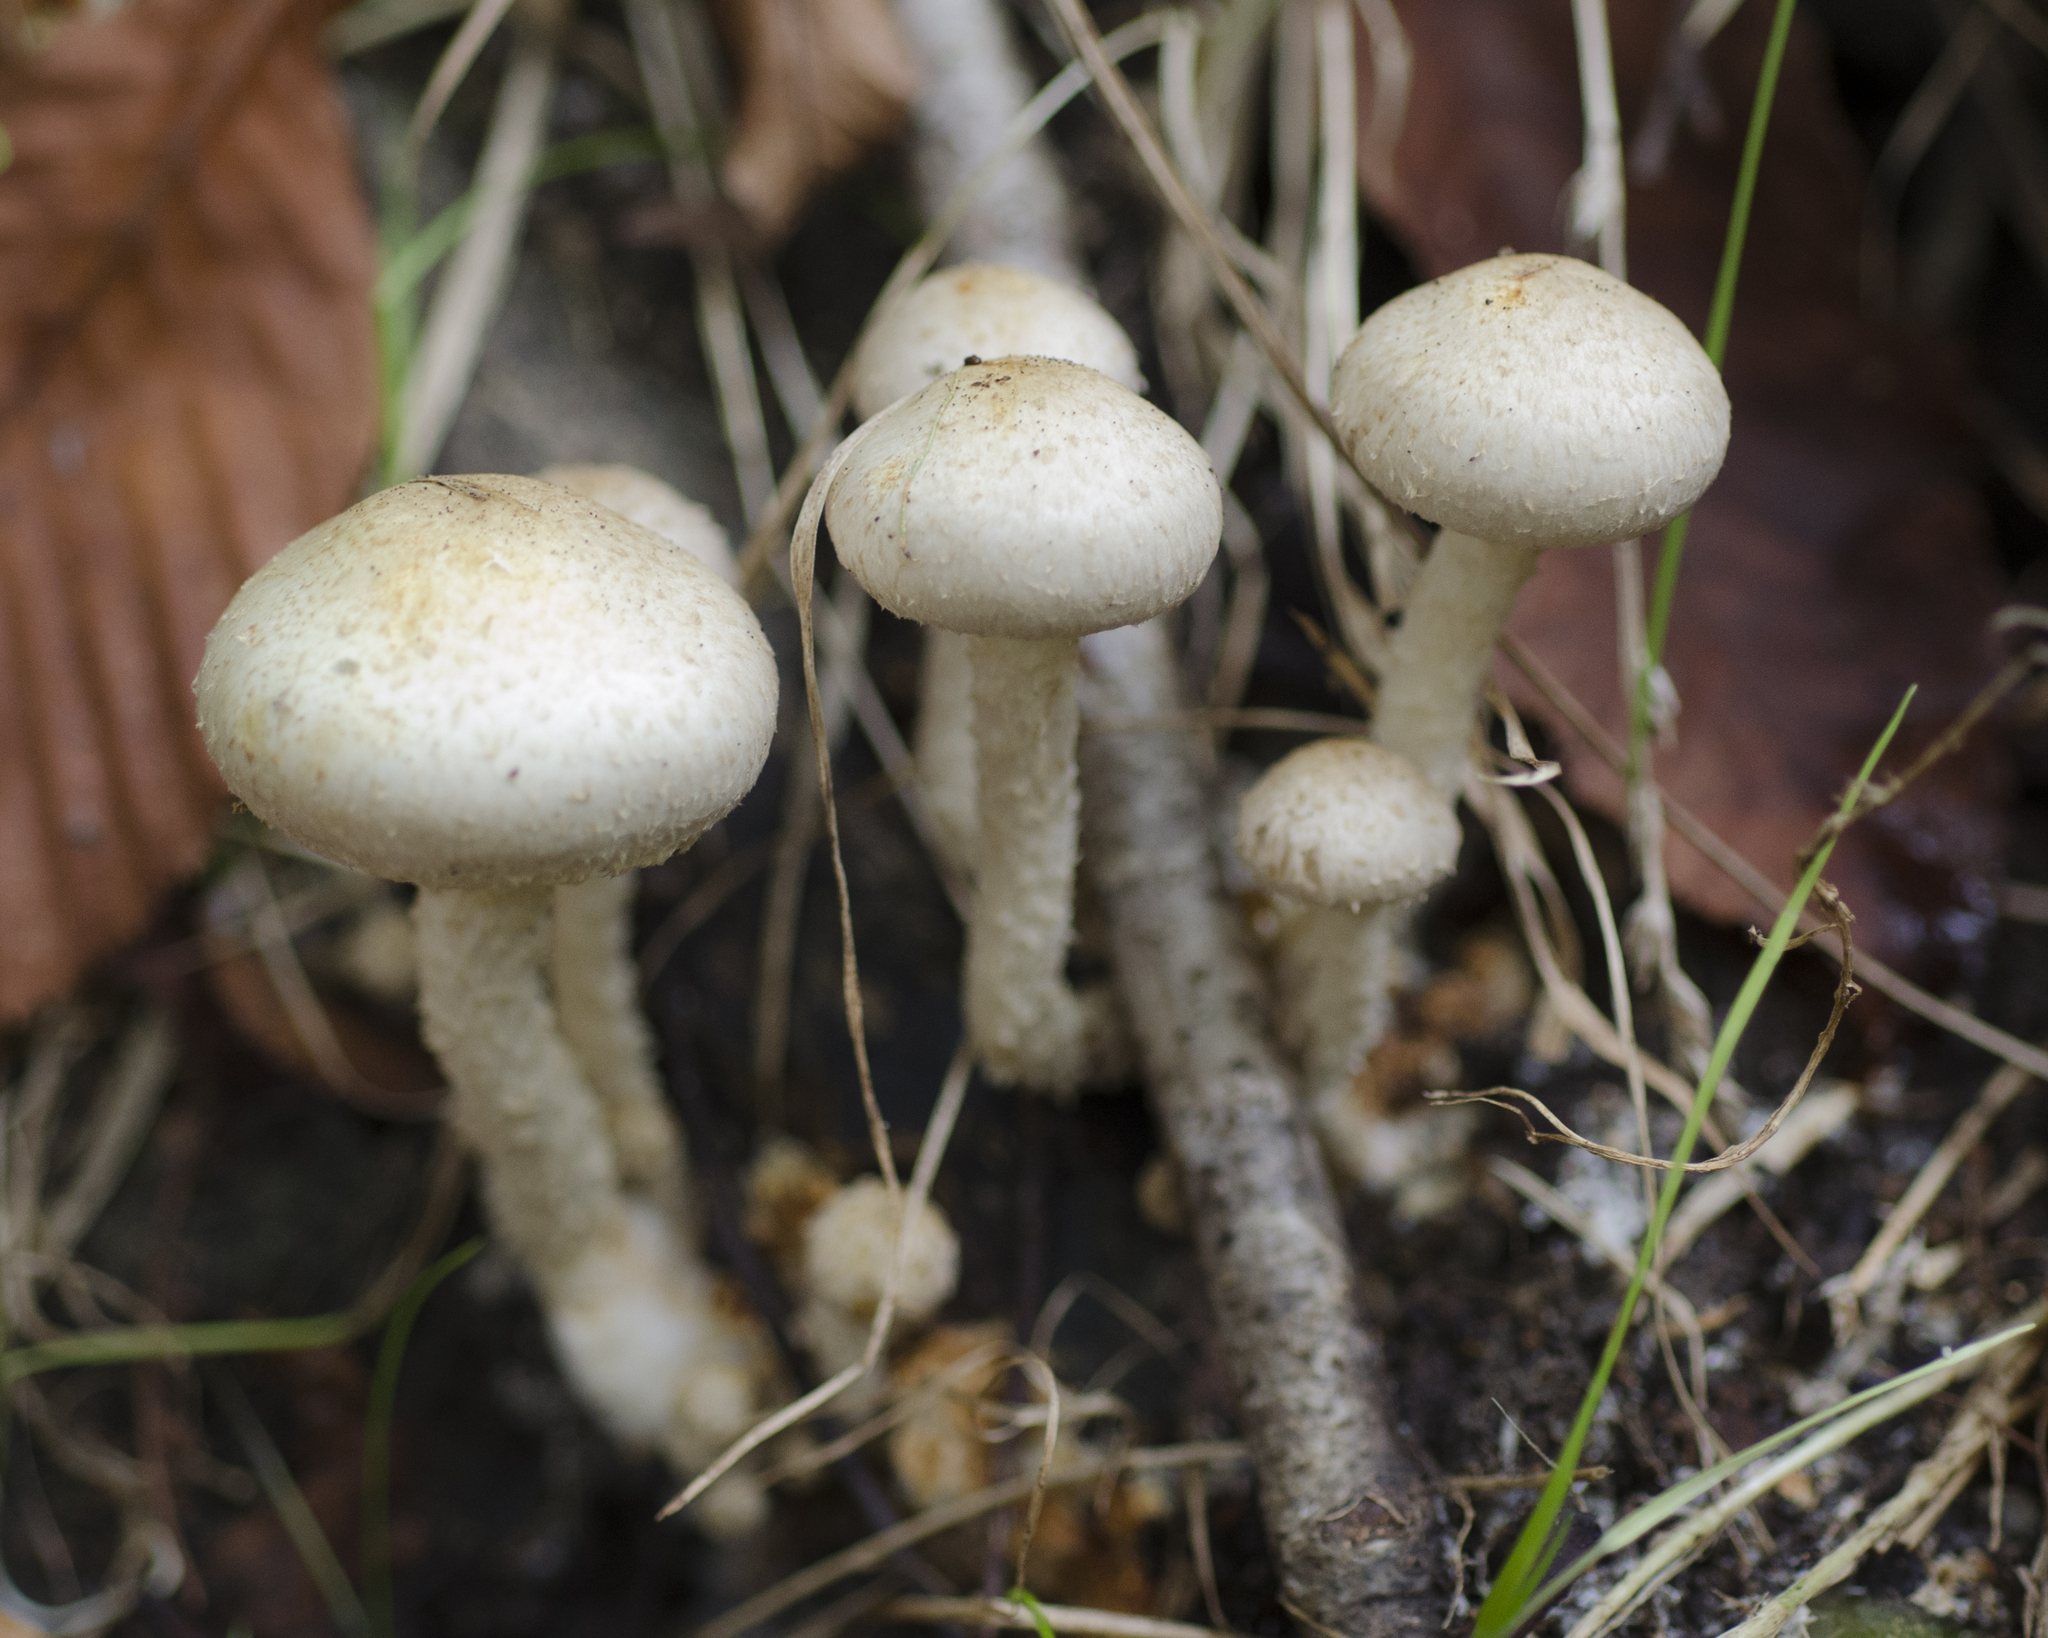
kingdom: Fungi
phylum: Basidiomycota
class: Agaricomycetes
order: Agaricales
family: Strophariaceae
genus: Pholiota
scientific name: Pholiota gummosa
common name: Sticky scalycap
